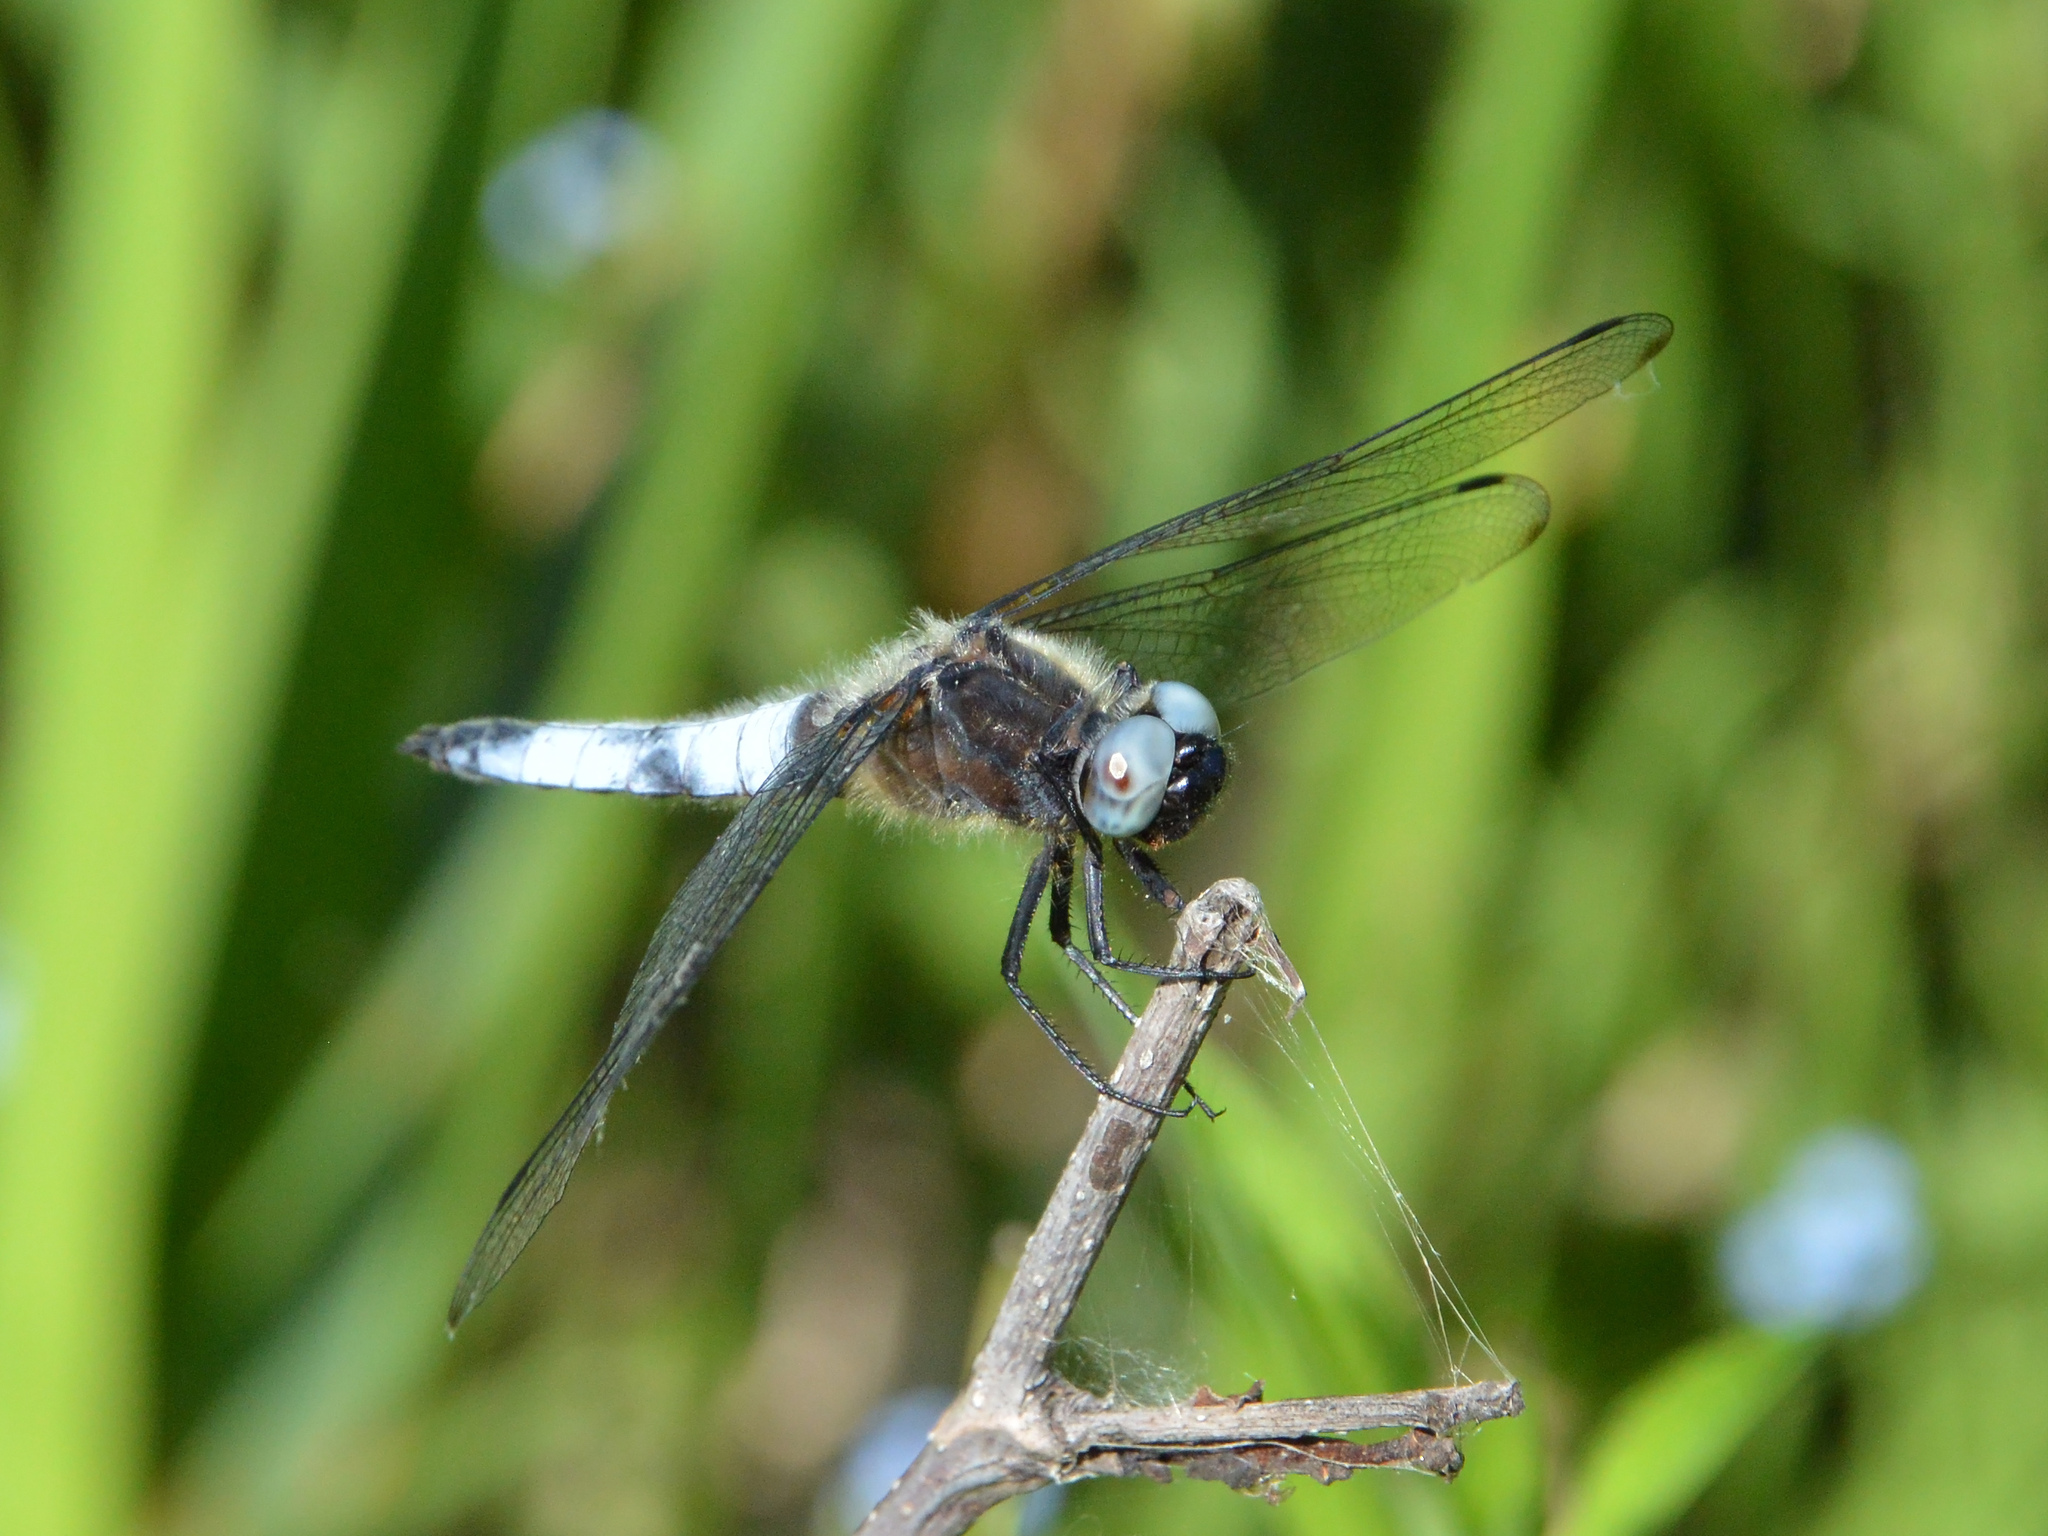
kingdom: Animalia
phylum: Arthropoda
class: Insecta
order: Odonata
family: Libellulidae
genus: Libellula
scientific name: Libellula fulva
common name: Blue chaser
